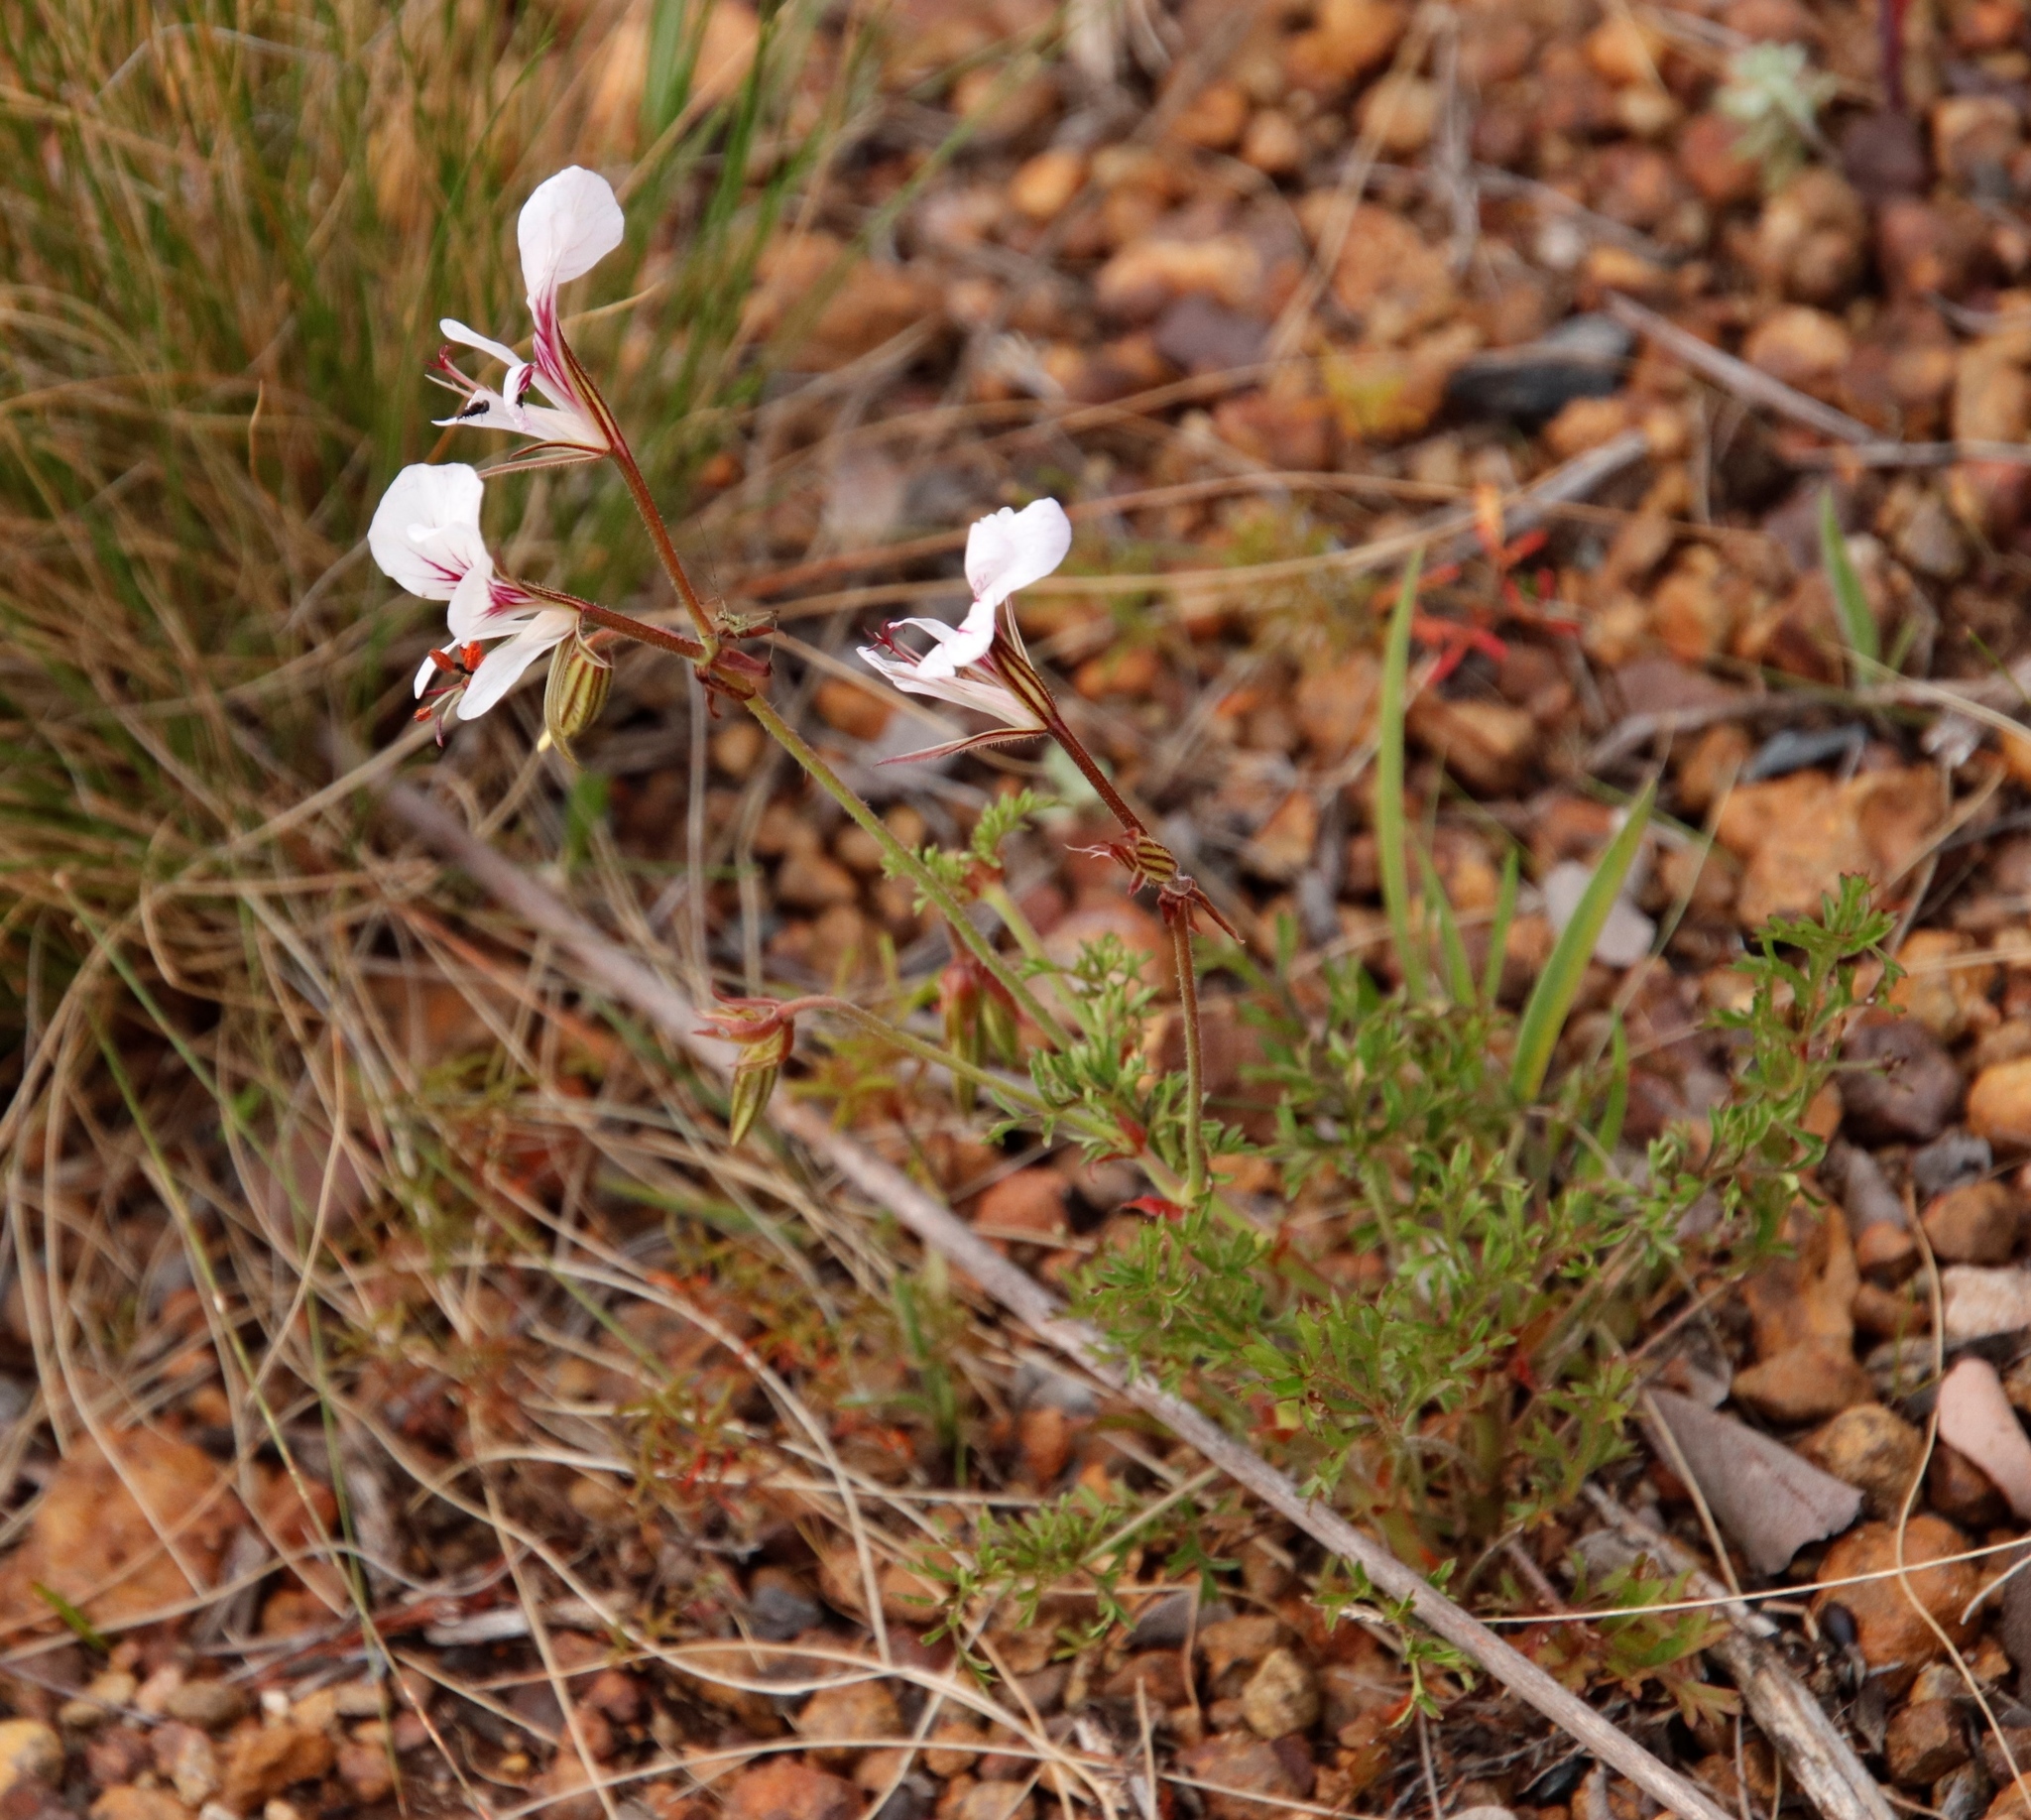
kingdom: Plantae
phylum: Tracheophyta
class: Magnoliopsida
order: Geraniales
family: Geraniaceae
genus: Pelargonium
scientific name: Pelargonium longicaule
